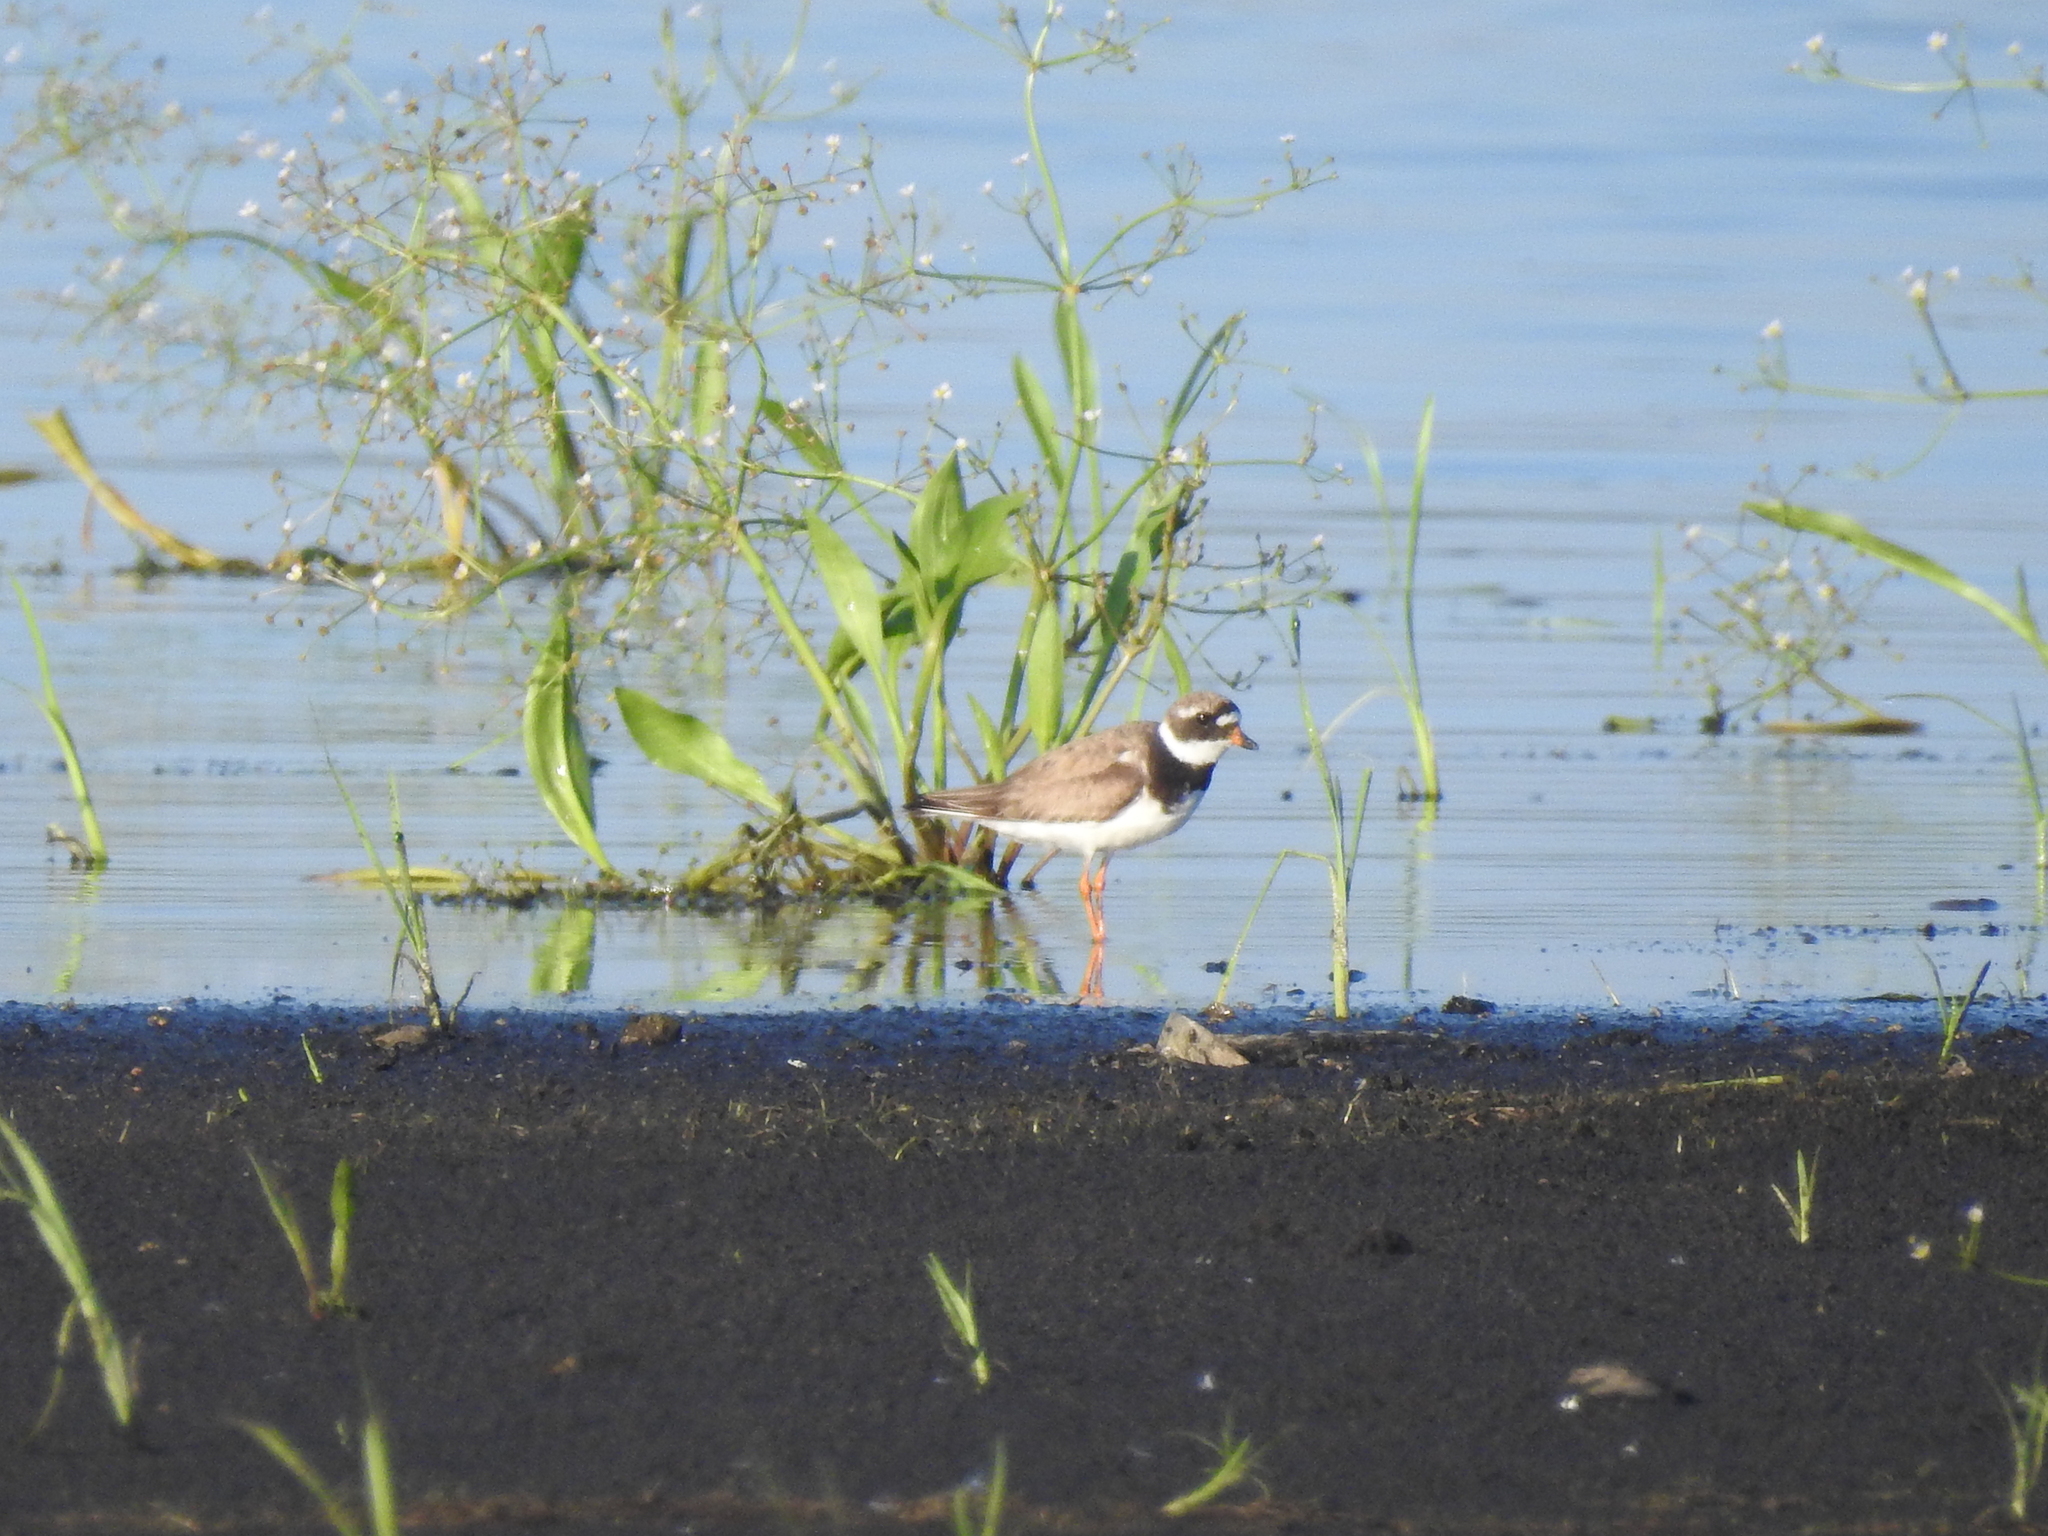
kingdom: Animalia
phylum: Chordata
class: Aves
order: Charadriiformes
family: Charadriidae
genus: Charadrius
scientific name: Charadrius hiaticula
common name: Common ringed plover
